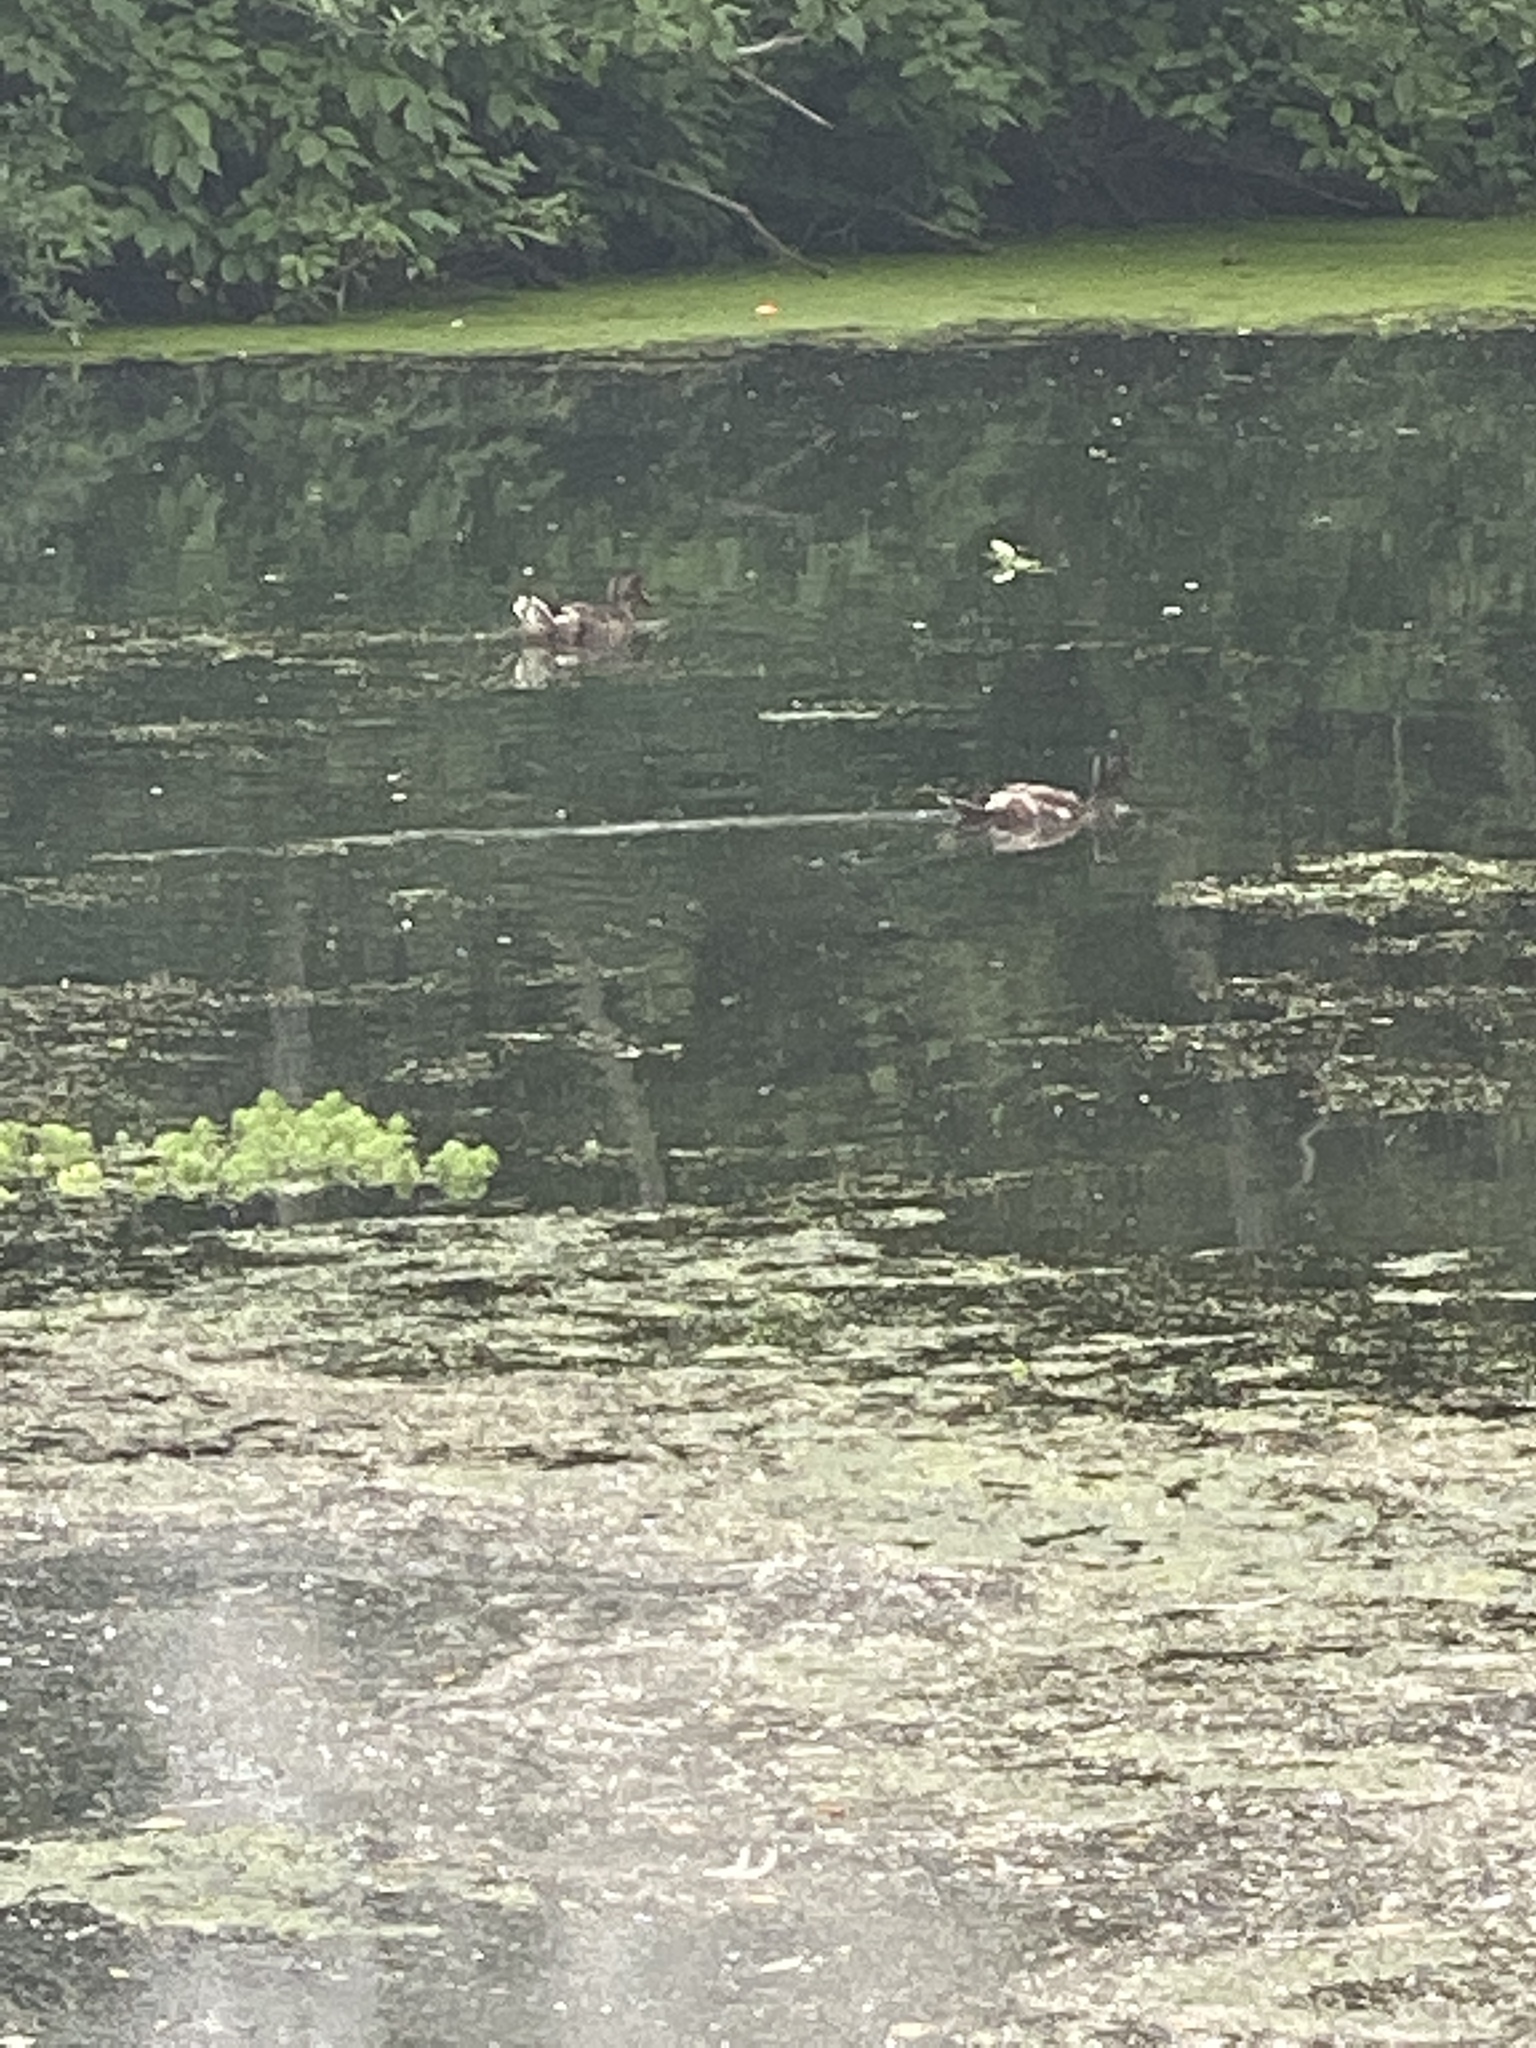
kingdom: Animalia
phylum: Chordata
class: Aves
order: Anseriformes
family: Anatidae
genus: Anas
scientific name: Anas platyrhynchos
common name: Mallard
